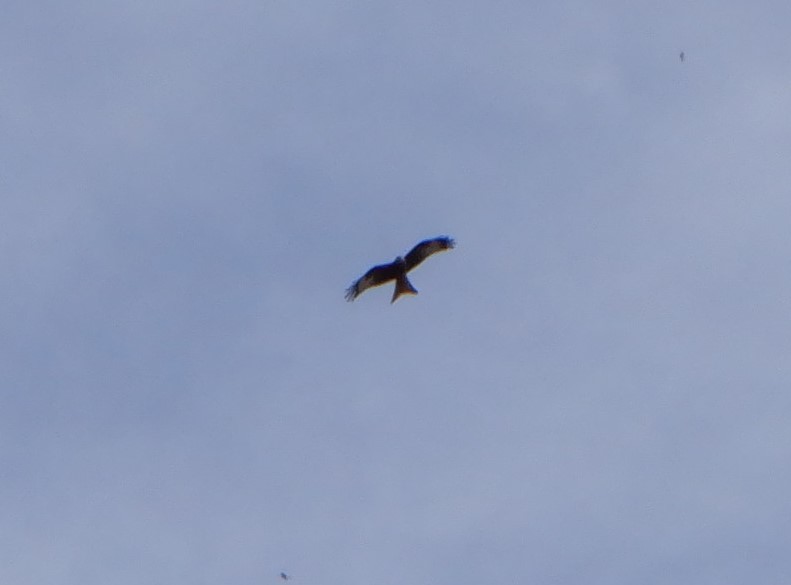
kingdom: Animalia
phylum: Chordata
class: Aves
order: Accipitriformes
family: Accipitridae
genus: Milvus
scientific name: Milvus milvus
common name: Red kite
